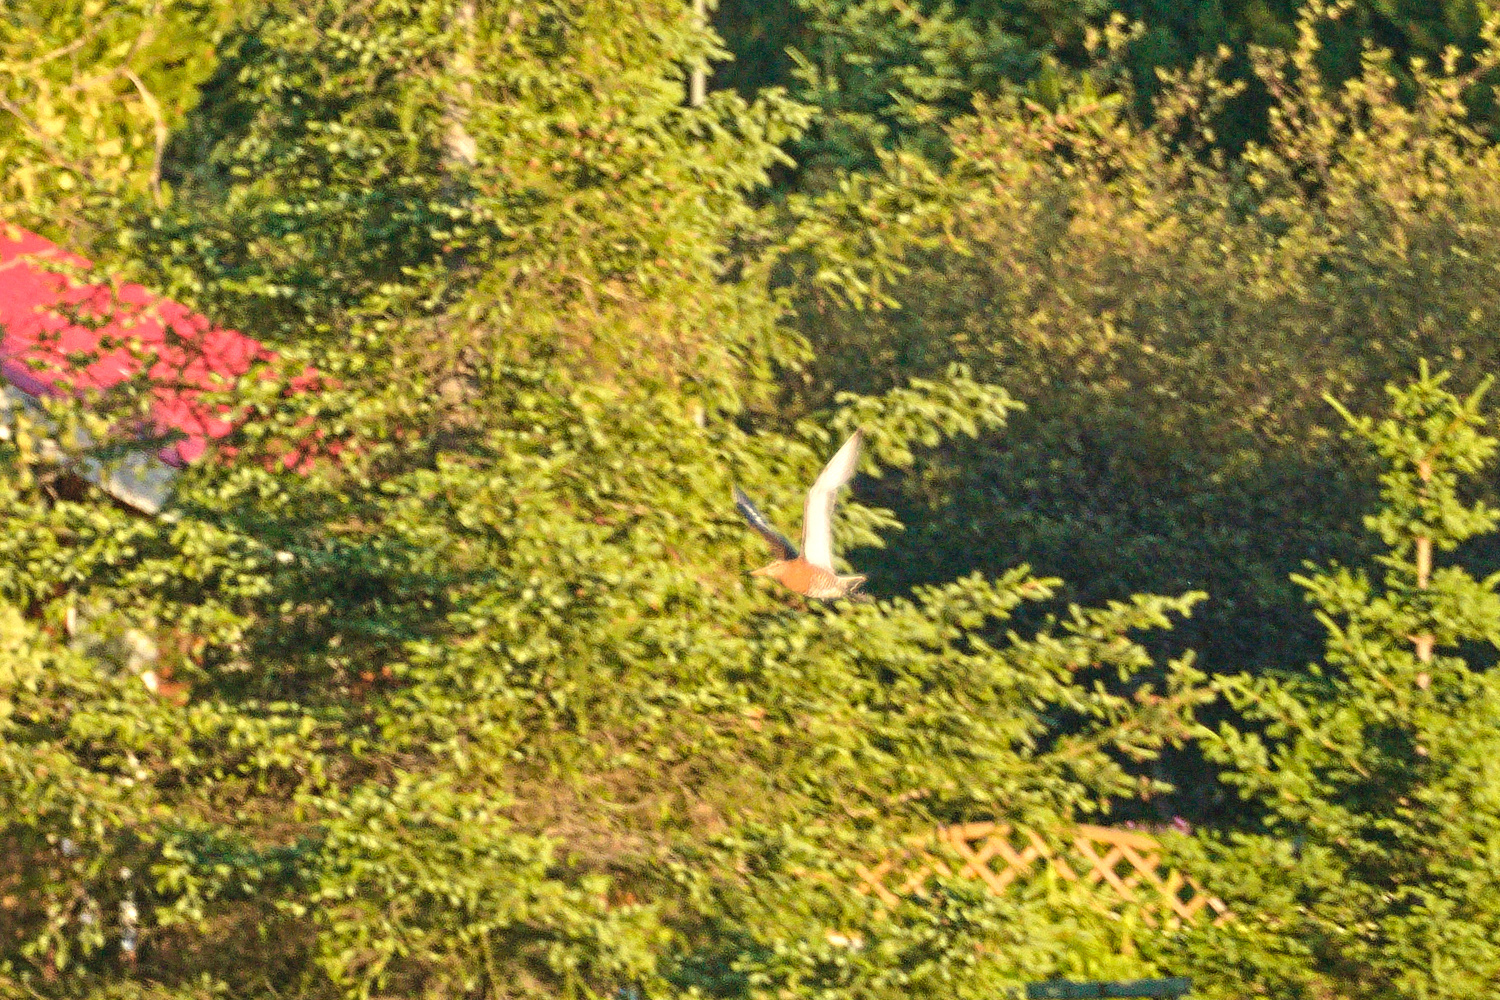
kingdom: Animalia
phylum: Chordata
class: Aves
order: Charadriiformes
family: Scolopacidae
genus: Limosa
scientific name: Limosa limosa
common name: Black-tailed godwit
